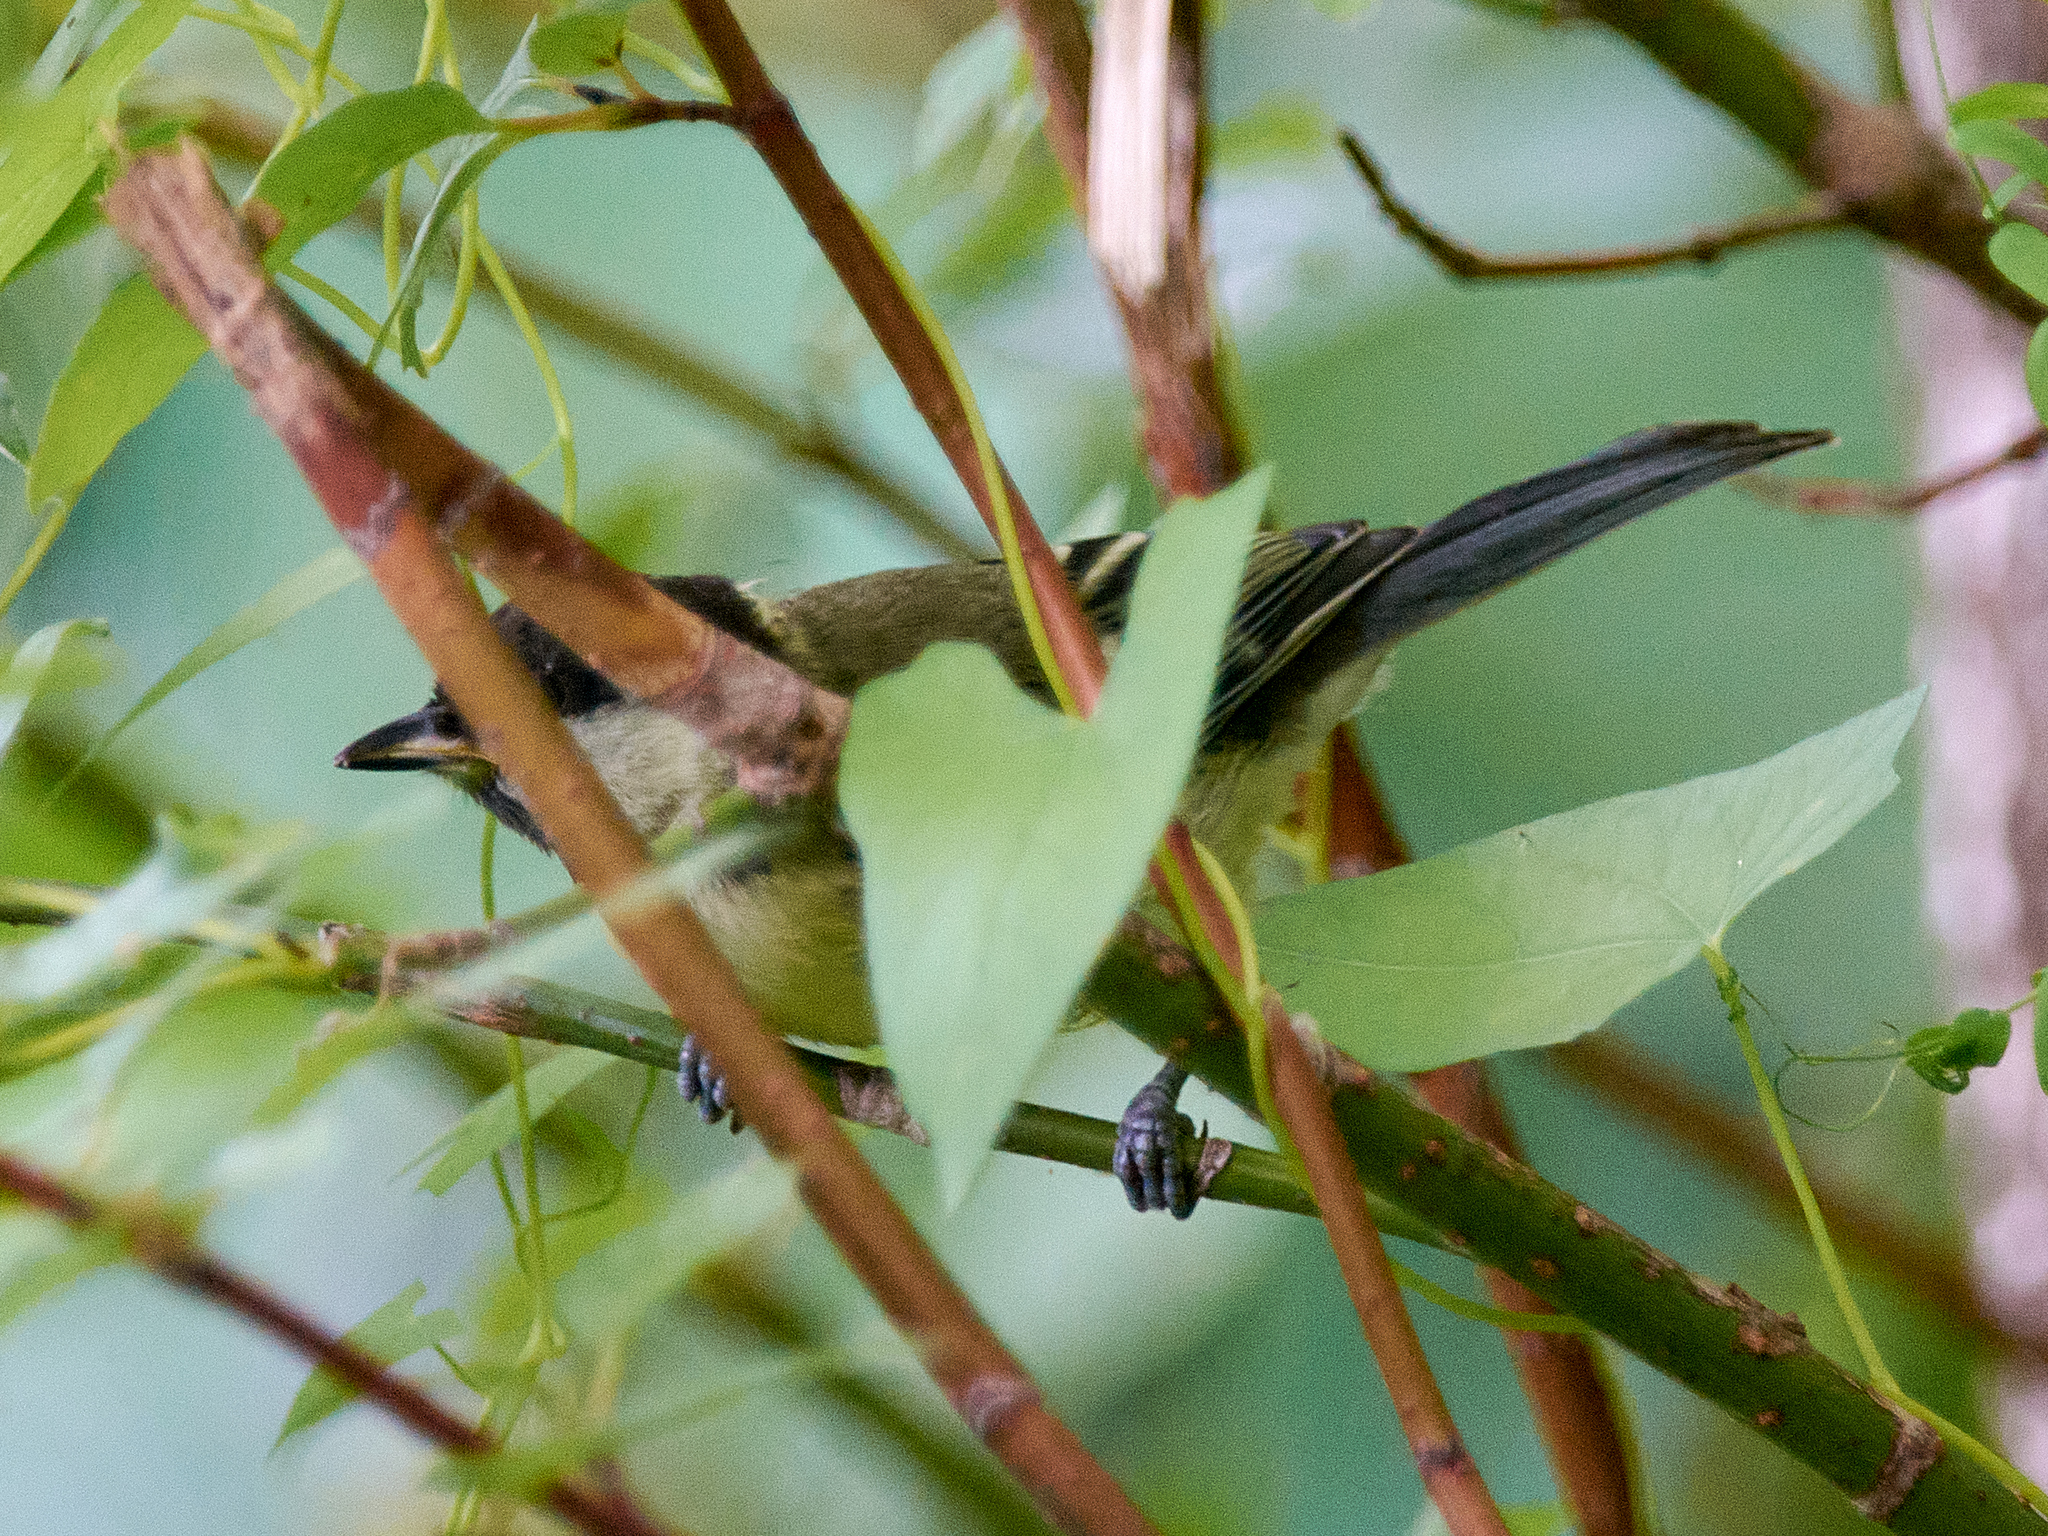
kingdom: Animalia
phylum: Chordata
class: Aves
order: Passeriformes
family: Paridae
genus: Parus
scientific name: Parus major
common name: Great tit
